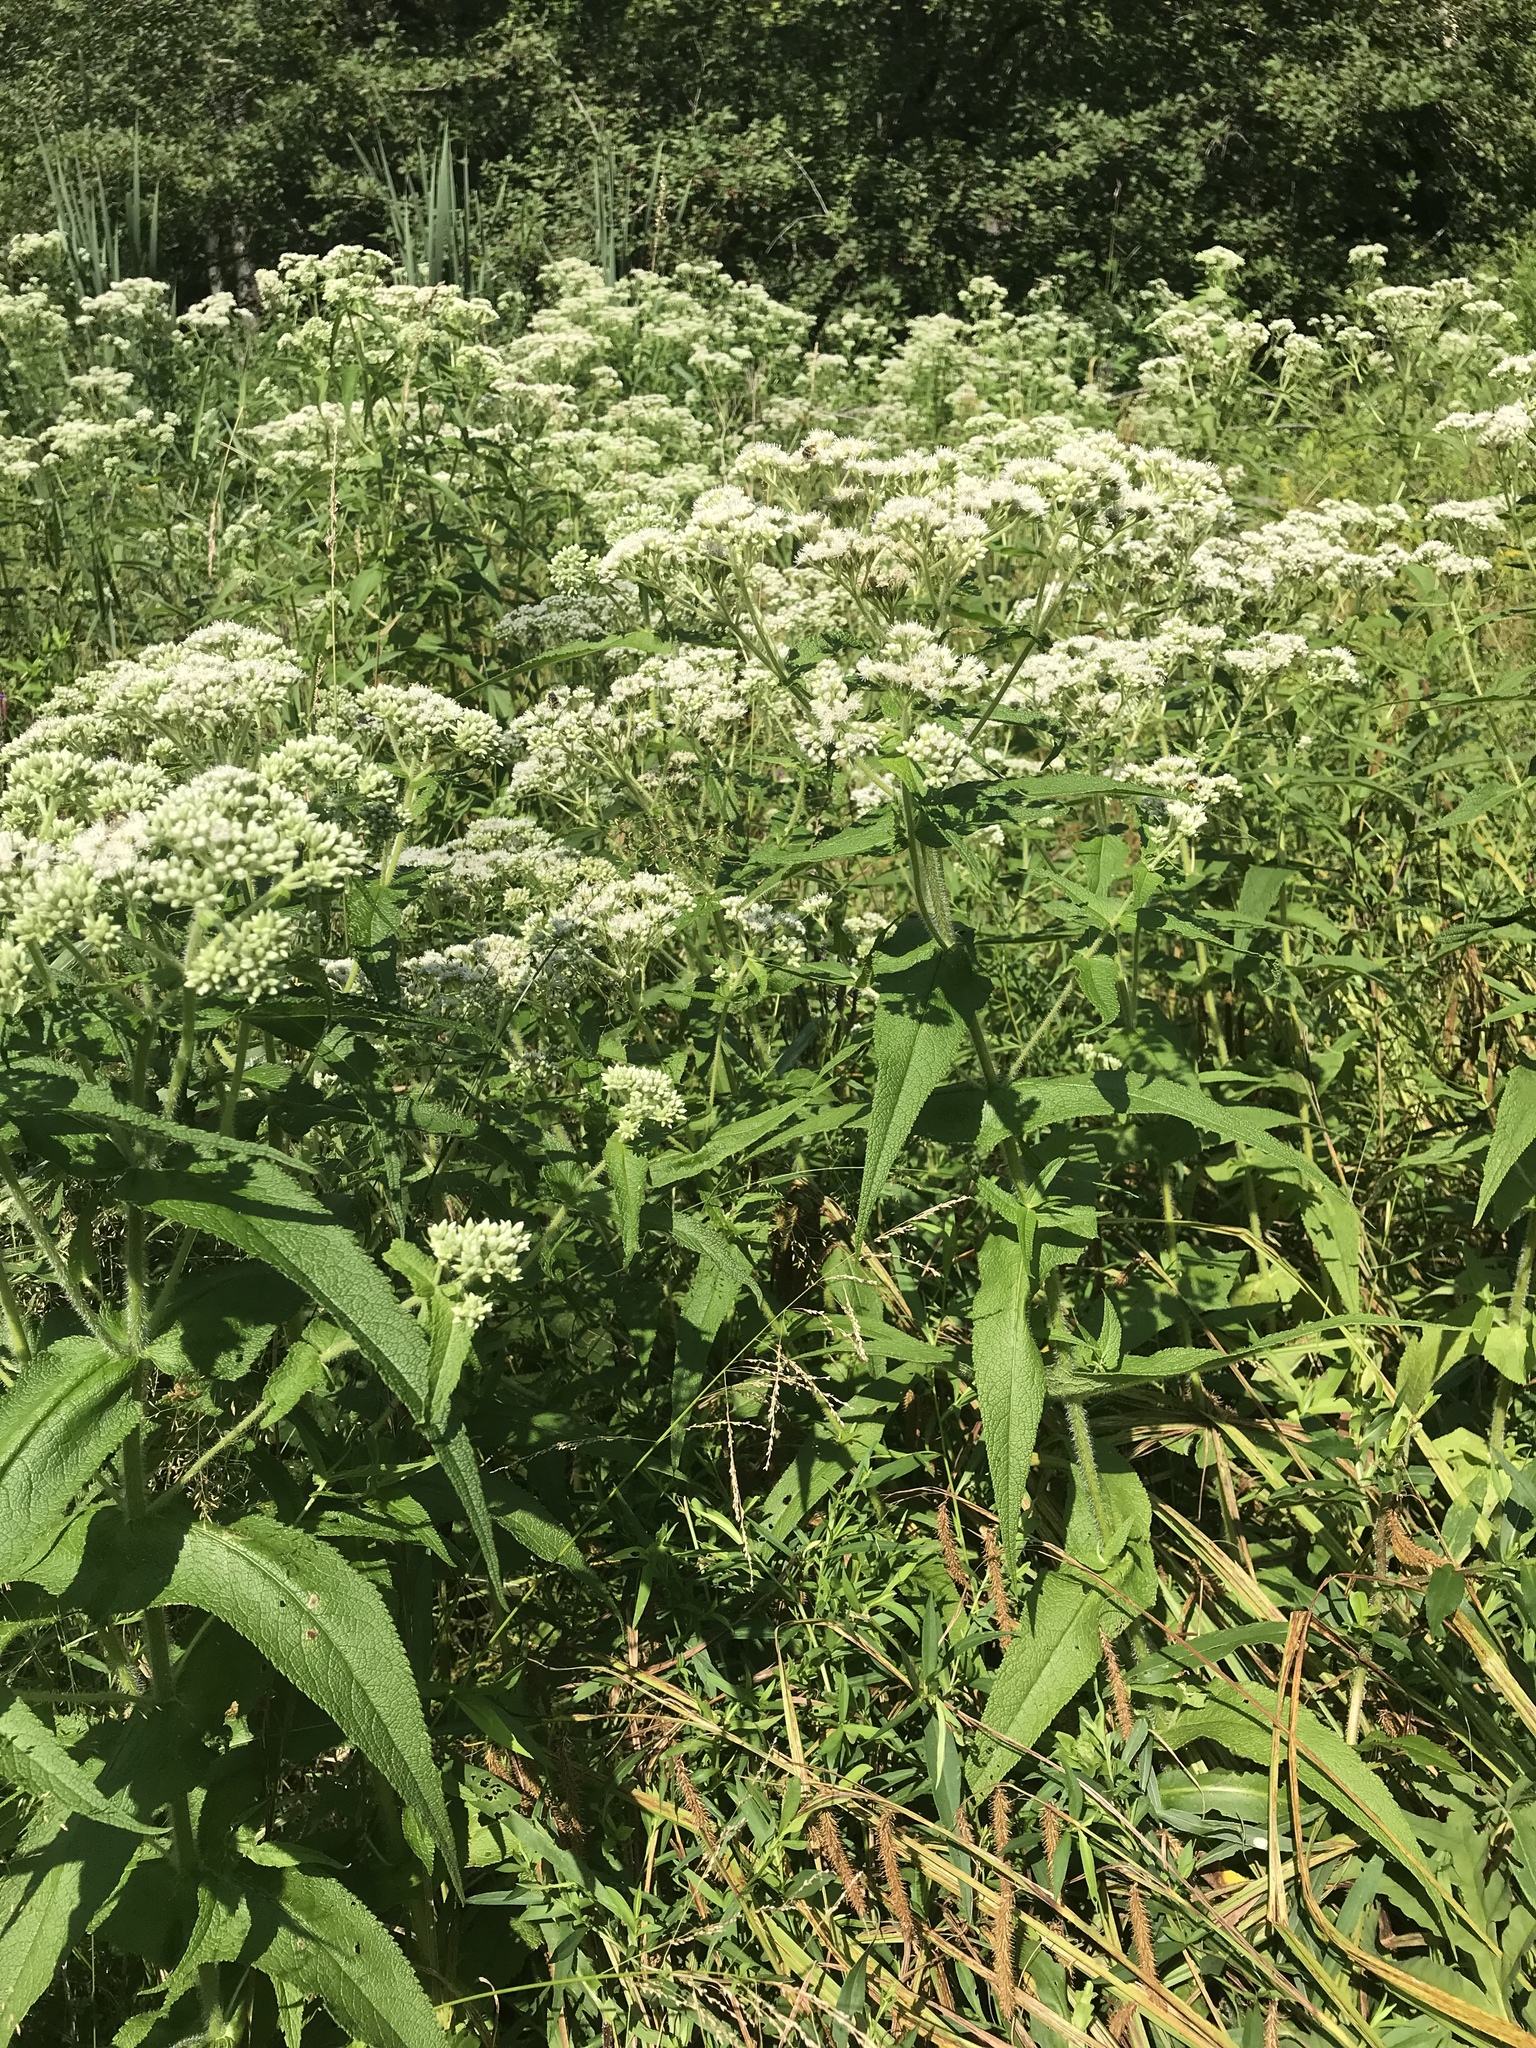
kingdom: Plantae
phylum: Tracheophyta
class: Magnoliopsida
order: Asterales
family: Asteraceae
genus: Eupatorium
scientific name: Eupatorium perfoliatum
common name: Boneset
